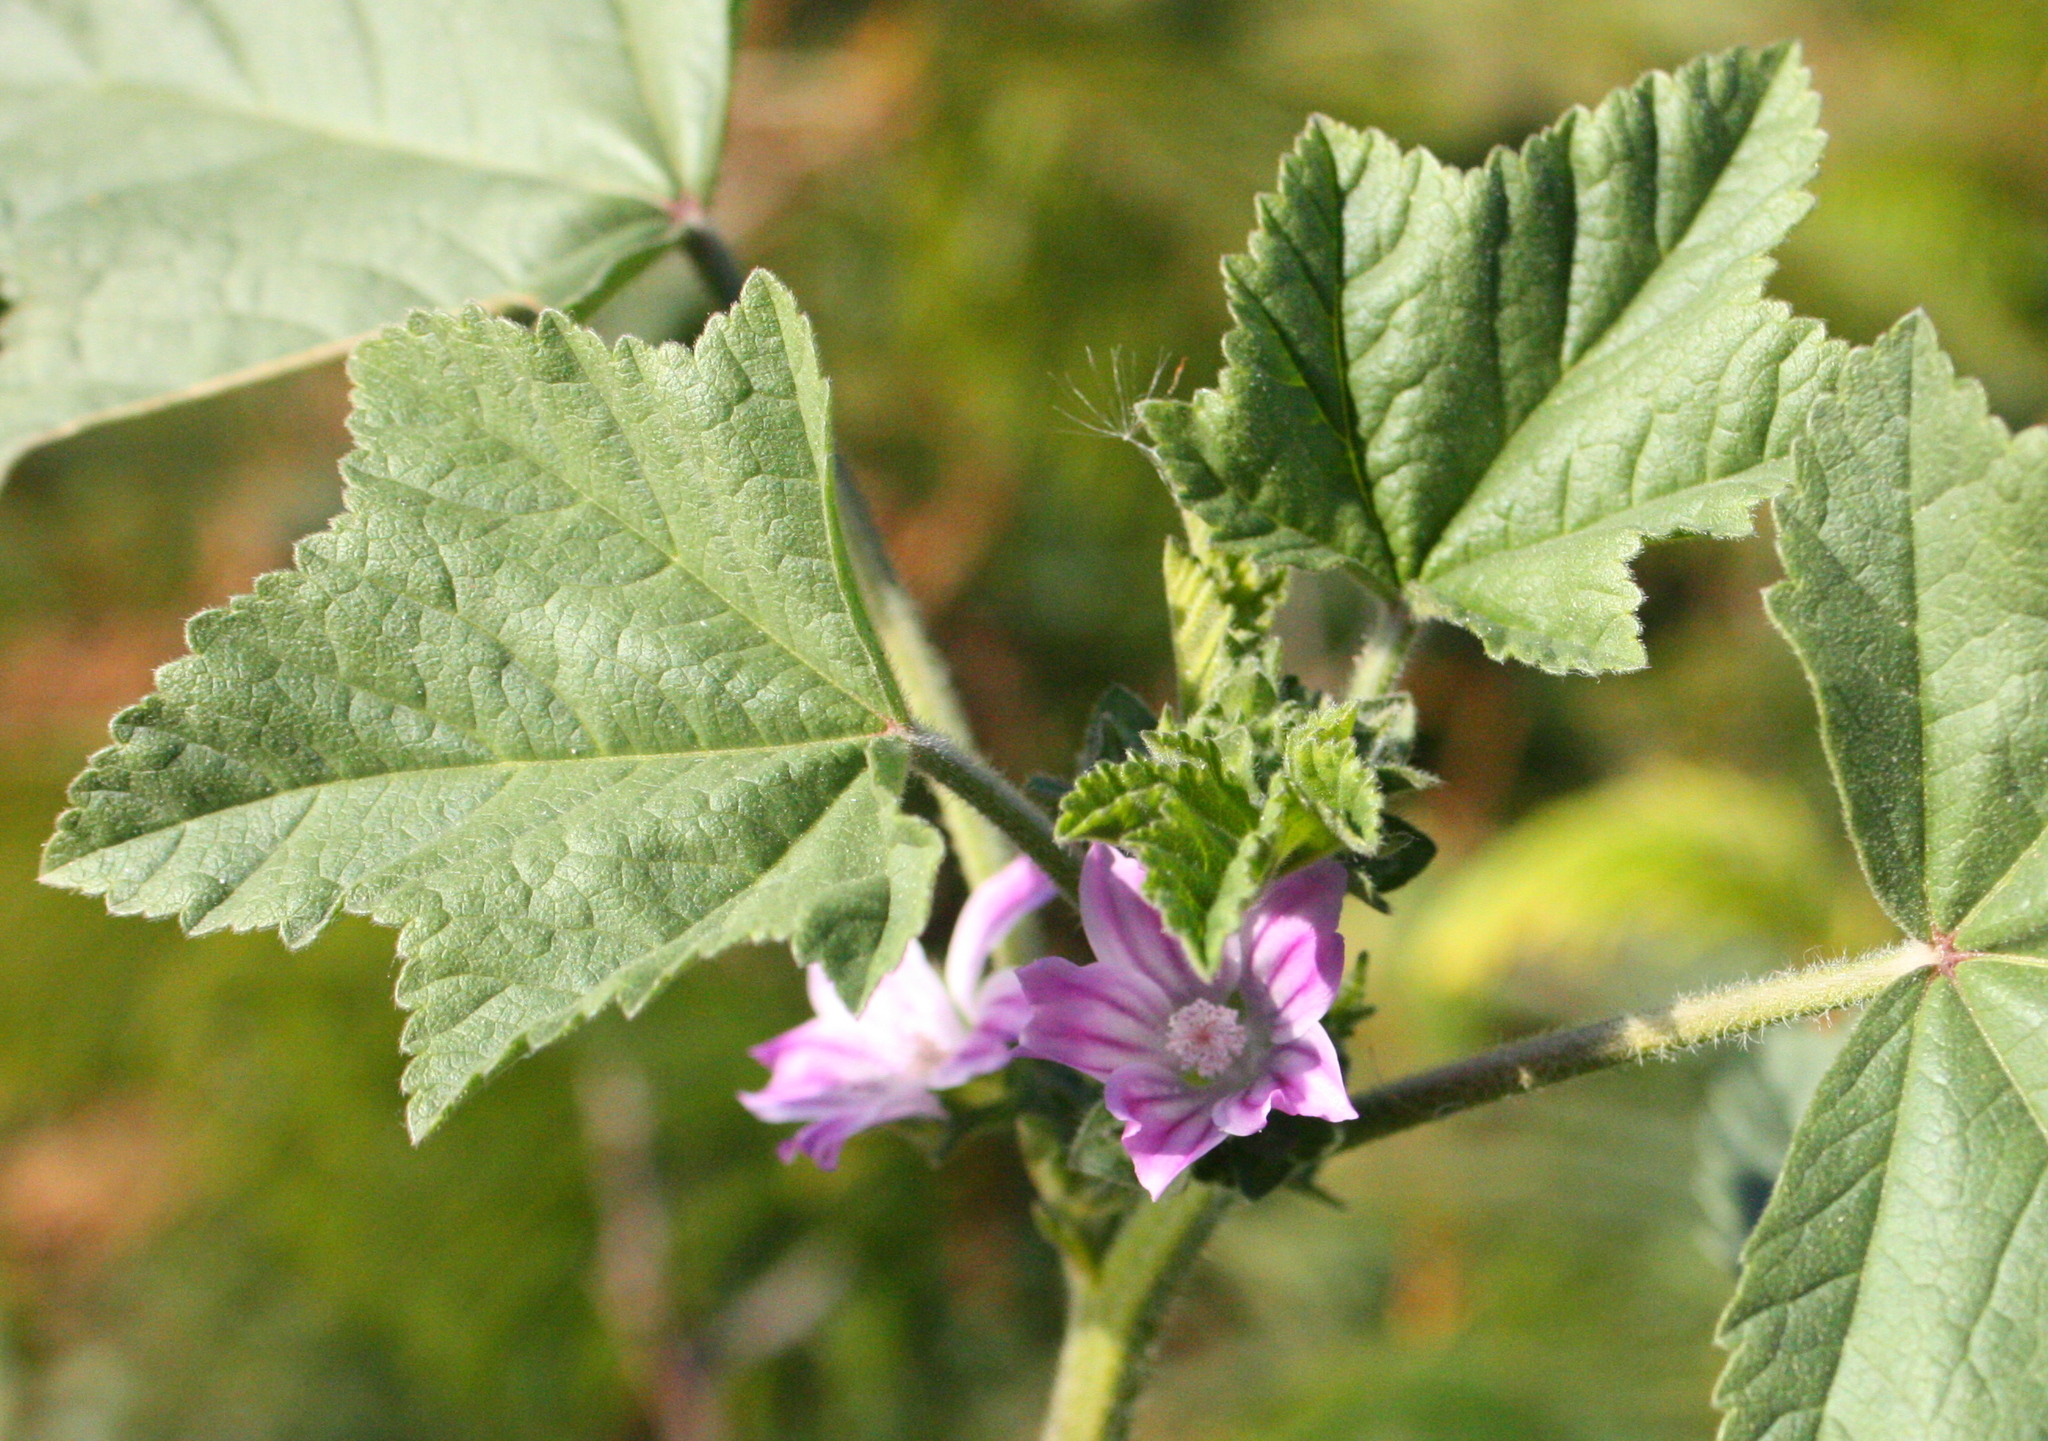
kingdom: Plantae
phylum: Tracheophyta
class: Magnoliopsida
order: Malvales
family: Malvaceae
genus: Malva
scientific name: Malva nicaeensis
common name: French mallow
